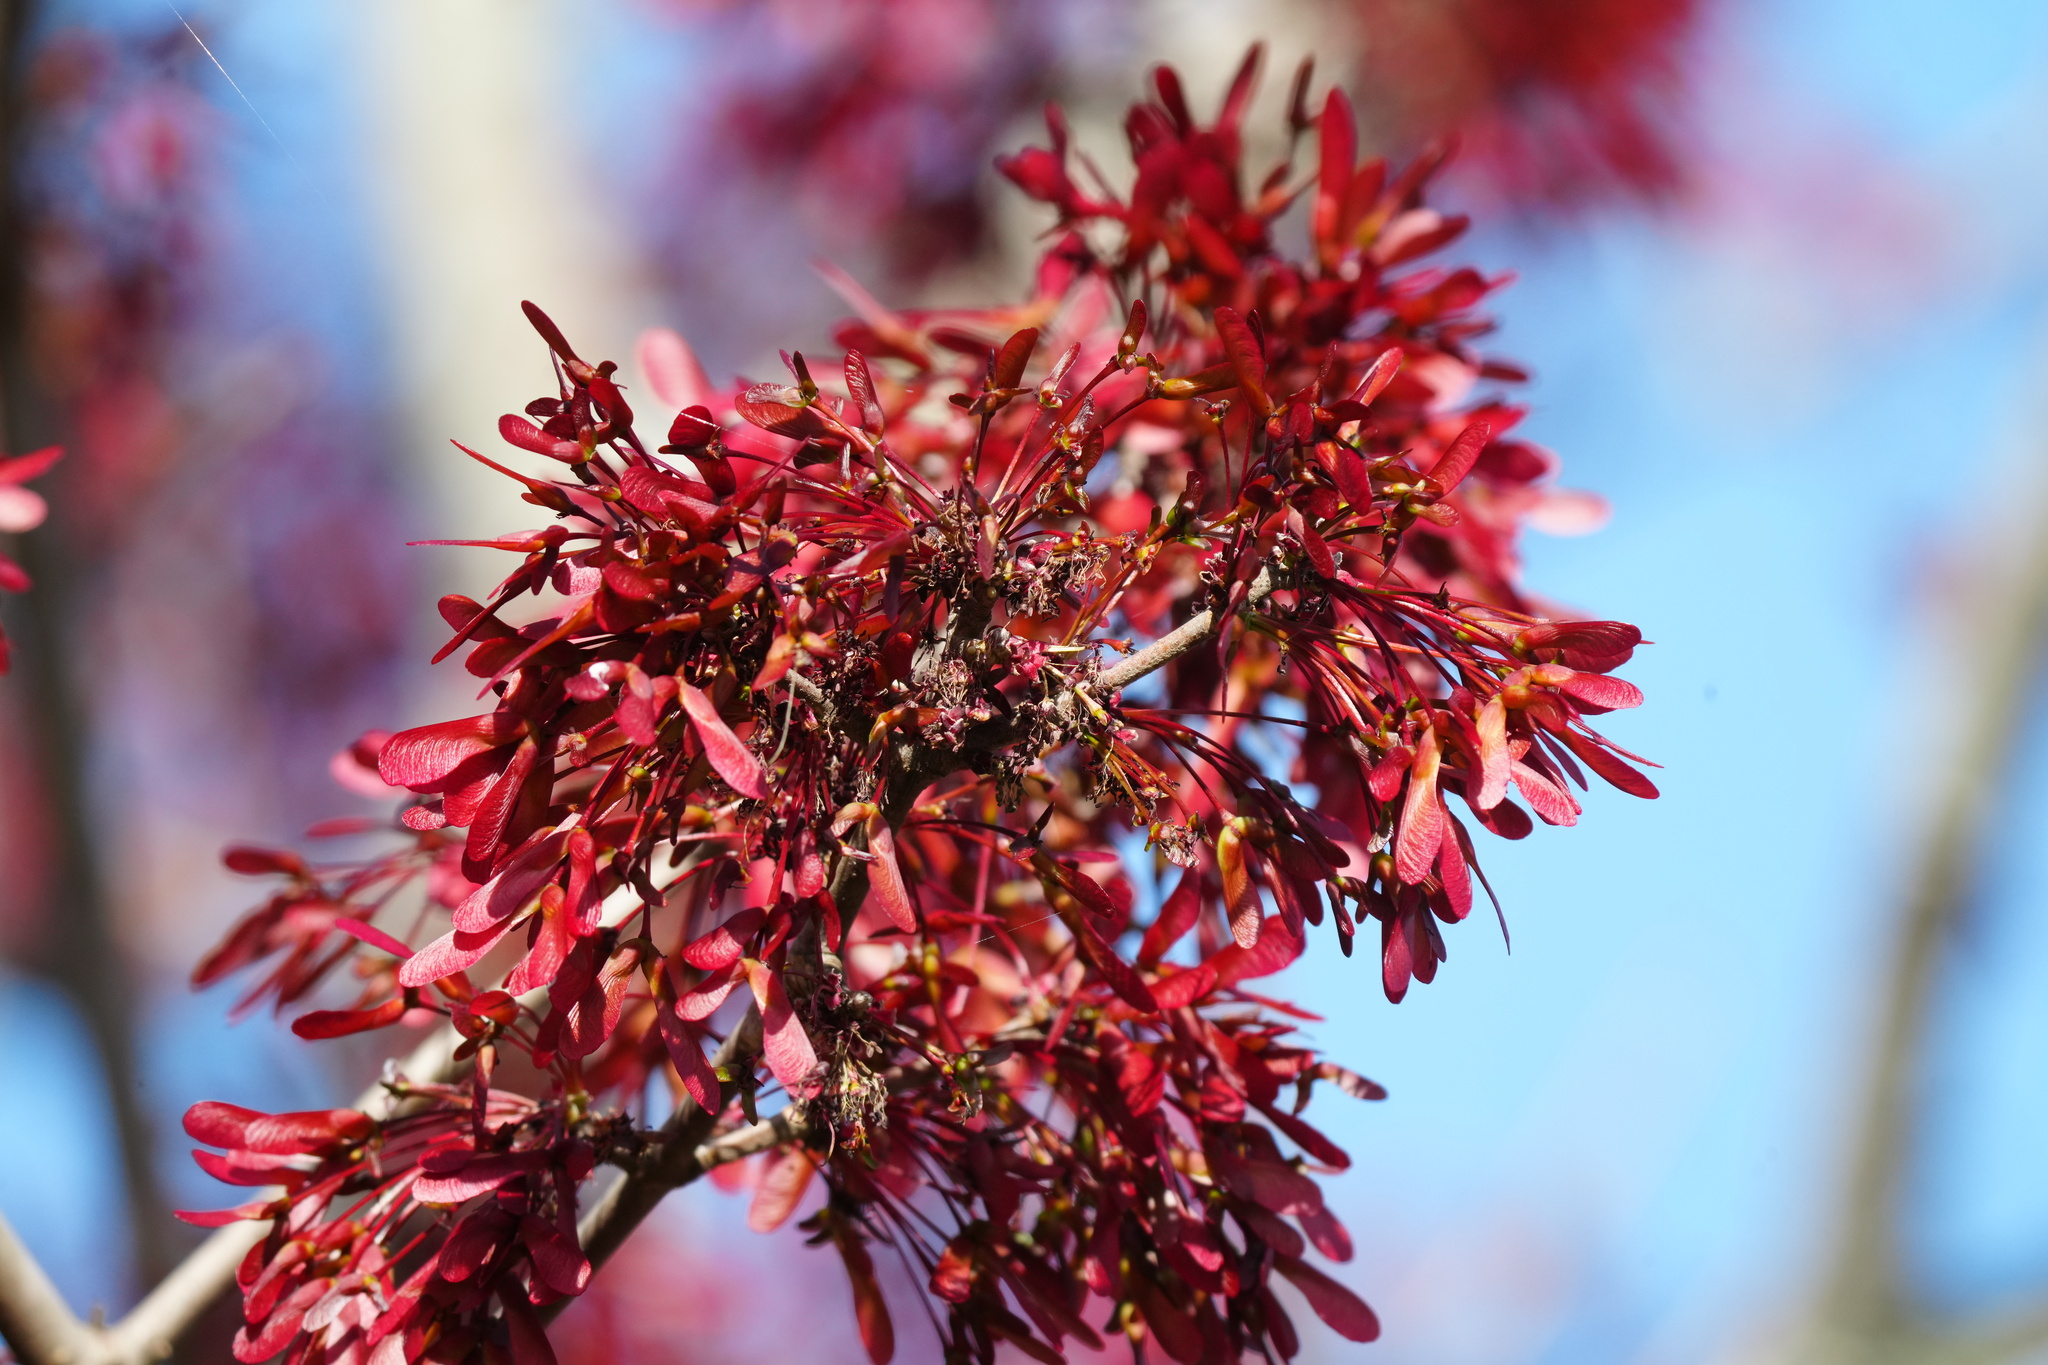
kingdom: Plantae
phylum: Tracheophyta
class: Magnoliopsida
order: Sapindales
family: Sapindaceae
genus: Acer
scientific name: Acer rubrum
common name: Red maple
